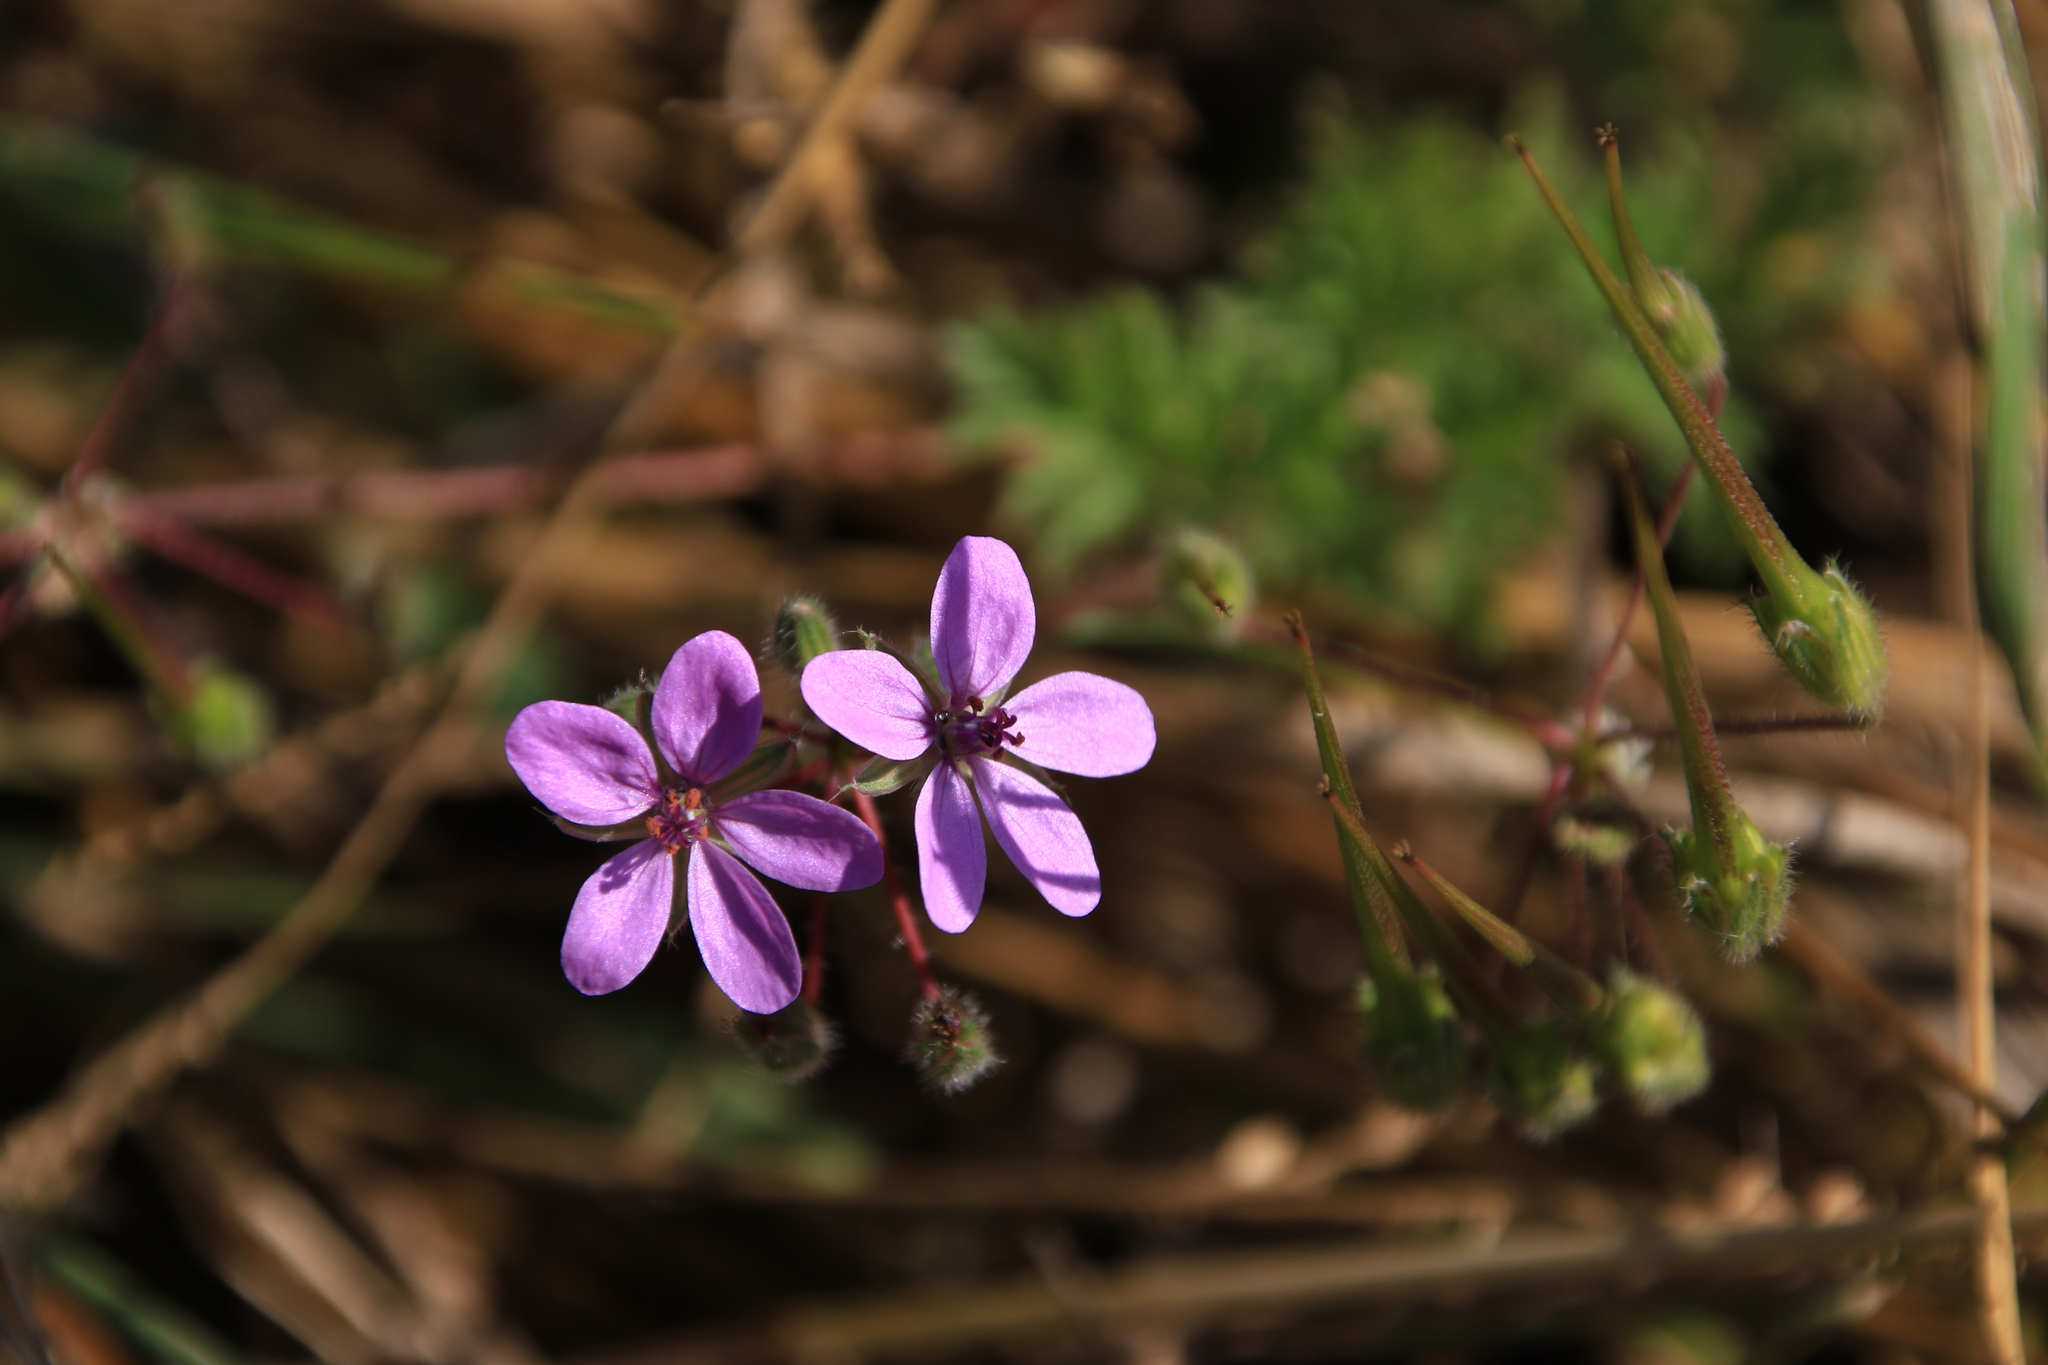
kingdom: Plantae
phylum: Tracheophyta
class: Magnoliopsida
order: Geraniales
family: Geraniaceae
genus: Erodium
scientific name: Erodium cicutarium
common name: Common stork's-bill
